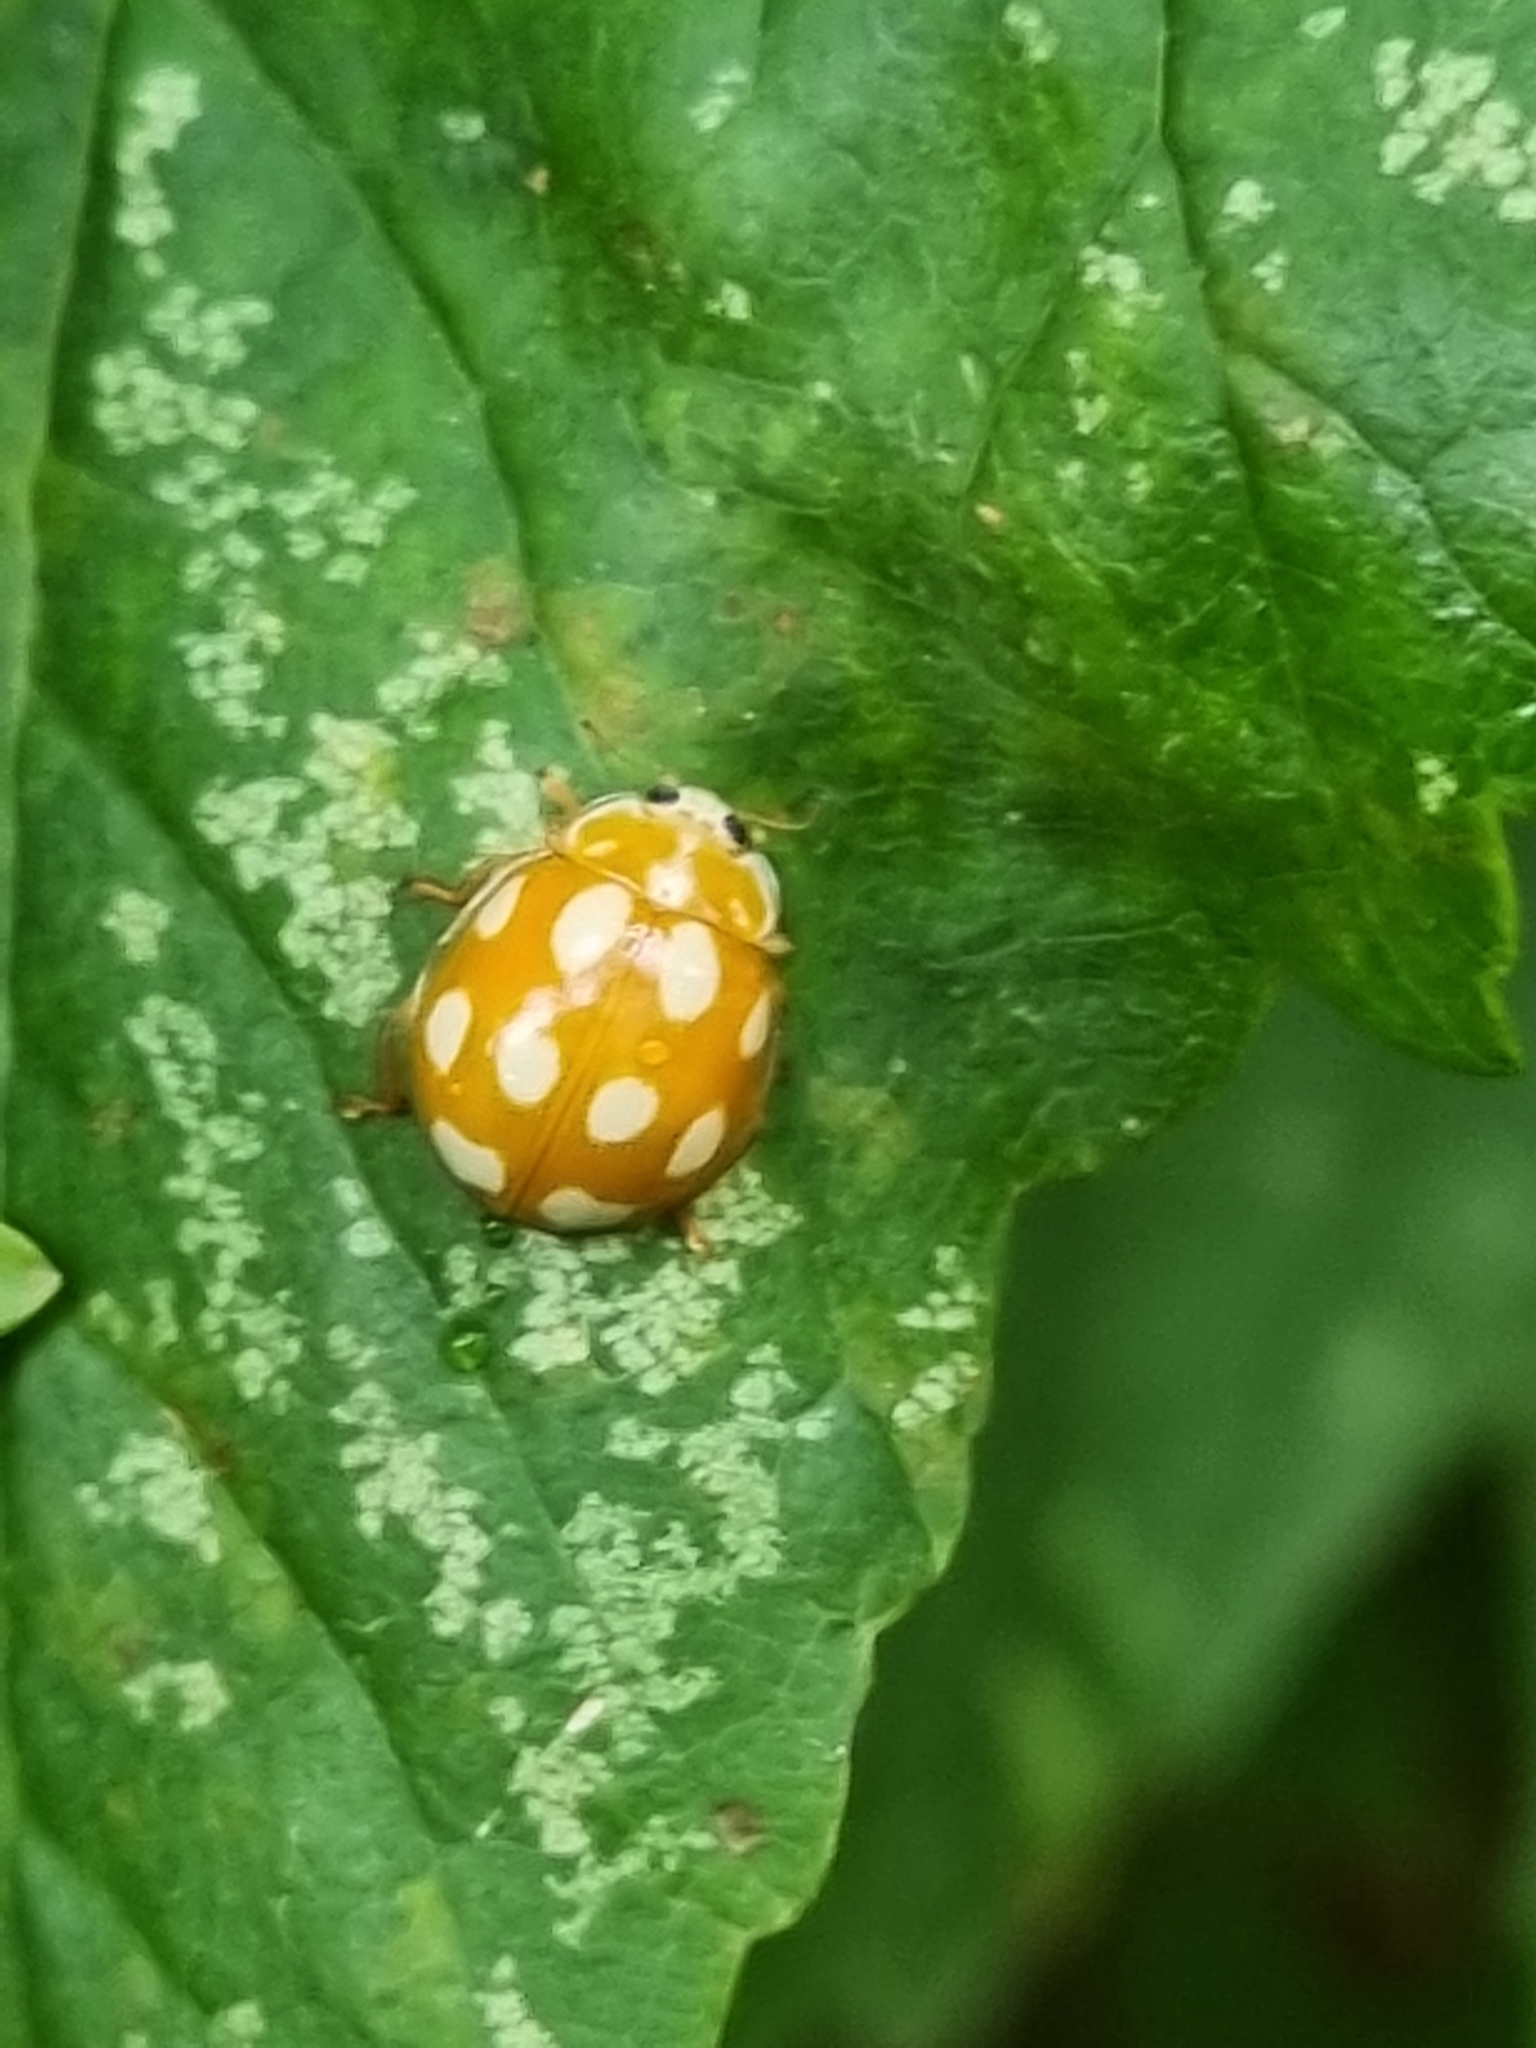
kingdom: Animalia
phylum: Arthropoda
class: Insecta
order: Coleoptera
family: Coccinellidae
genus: Calvia
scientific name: Calvia decemguttata
